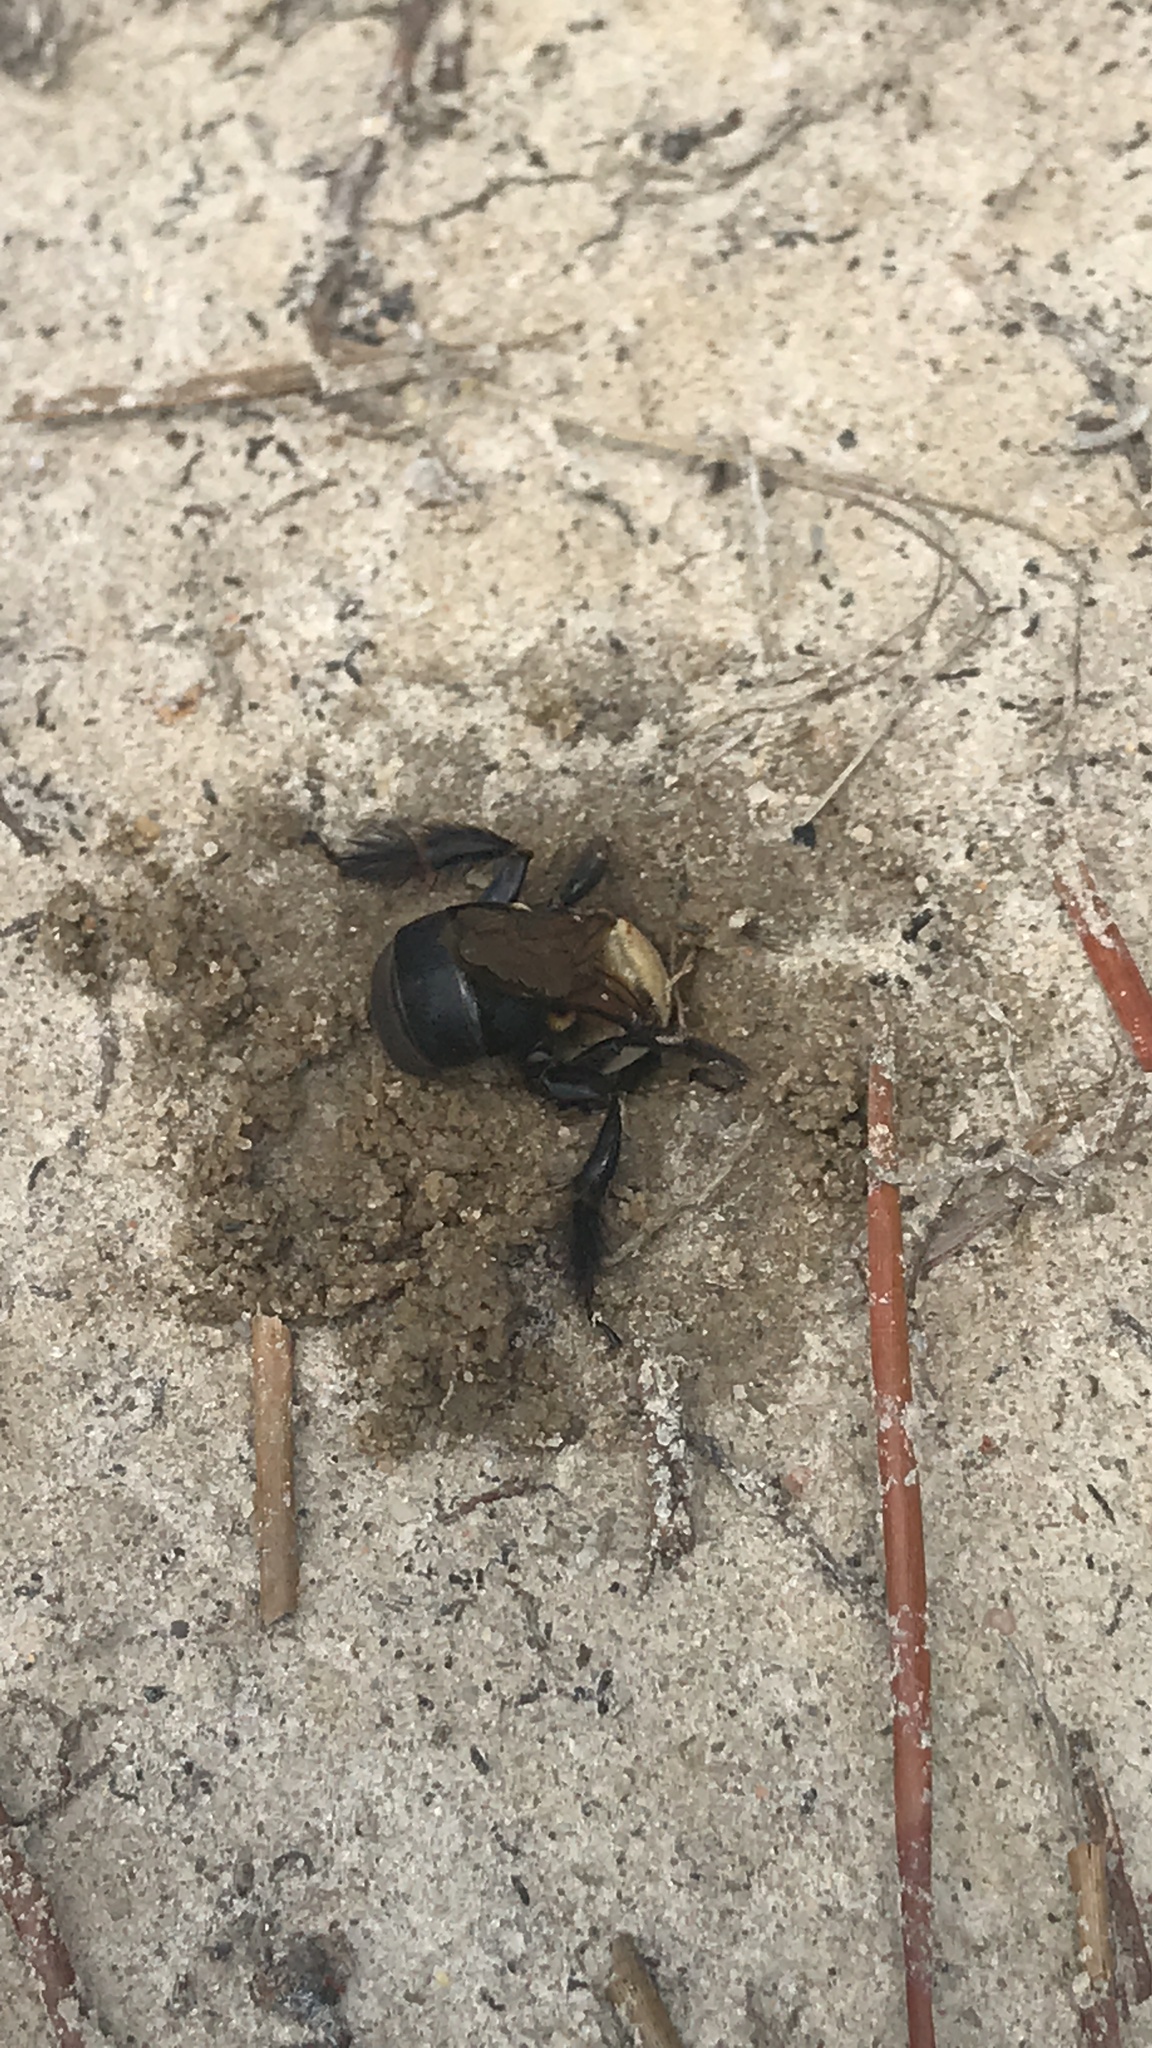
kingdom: Animalia
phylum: Arthropoda
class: Insecta
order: Hymenoptera
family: Apidae
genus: Ptilothrix
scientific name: Ptilothrix bombiformis
